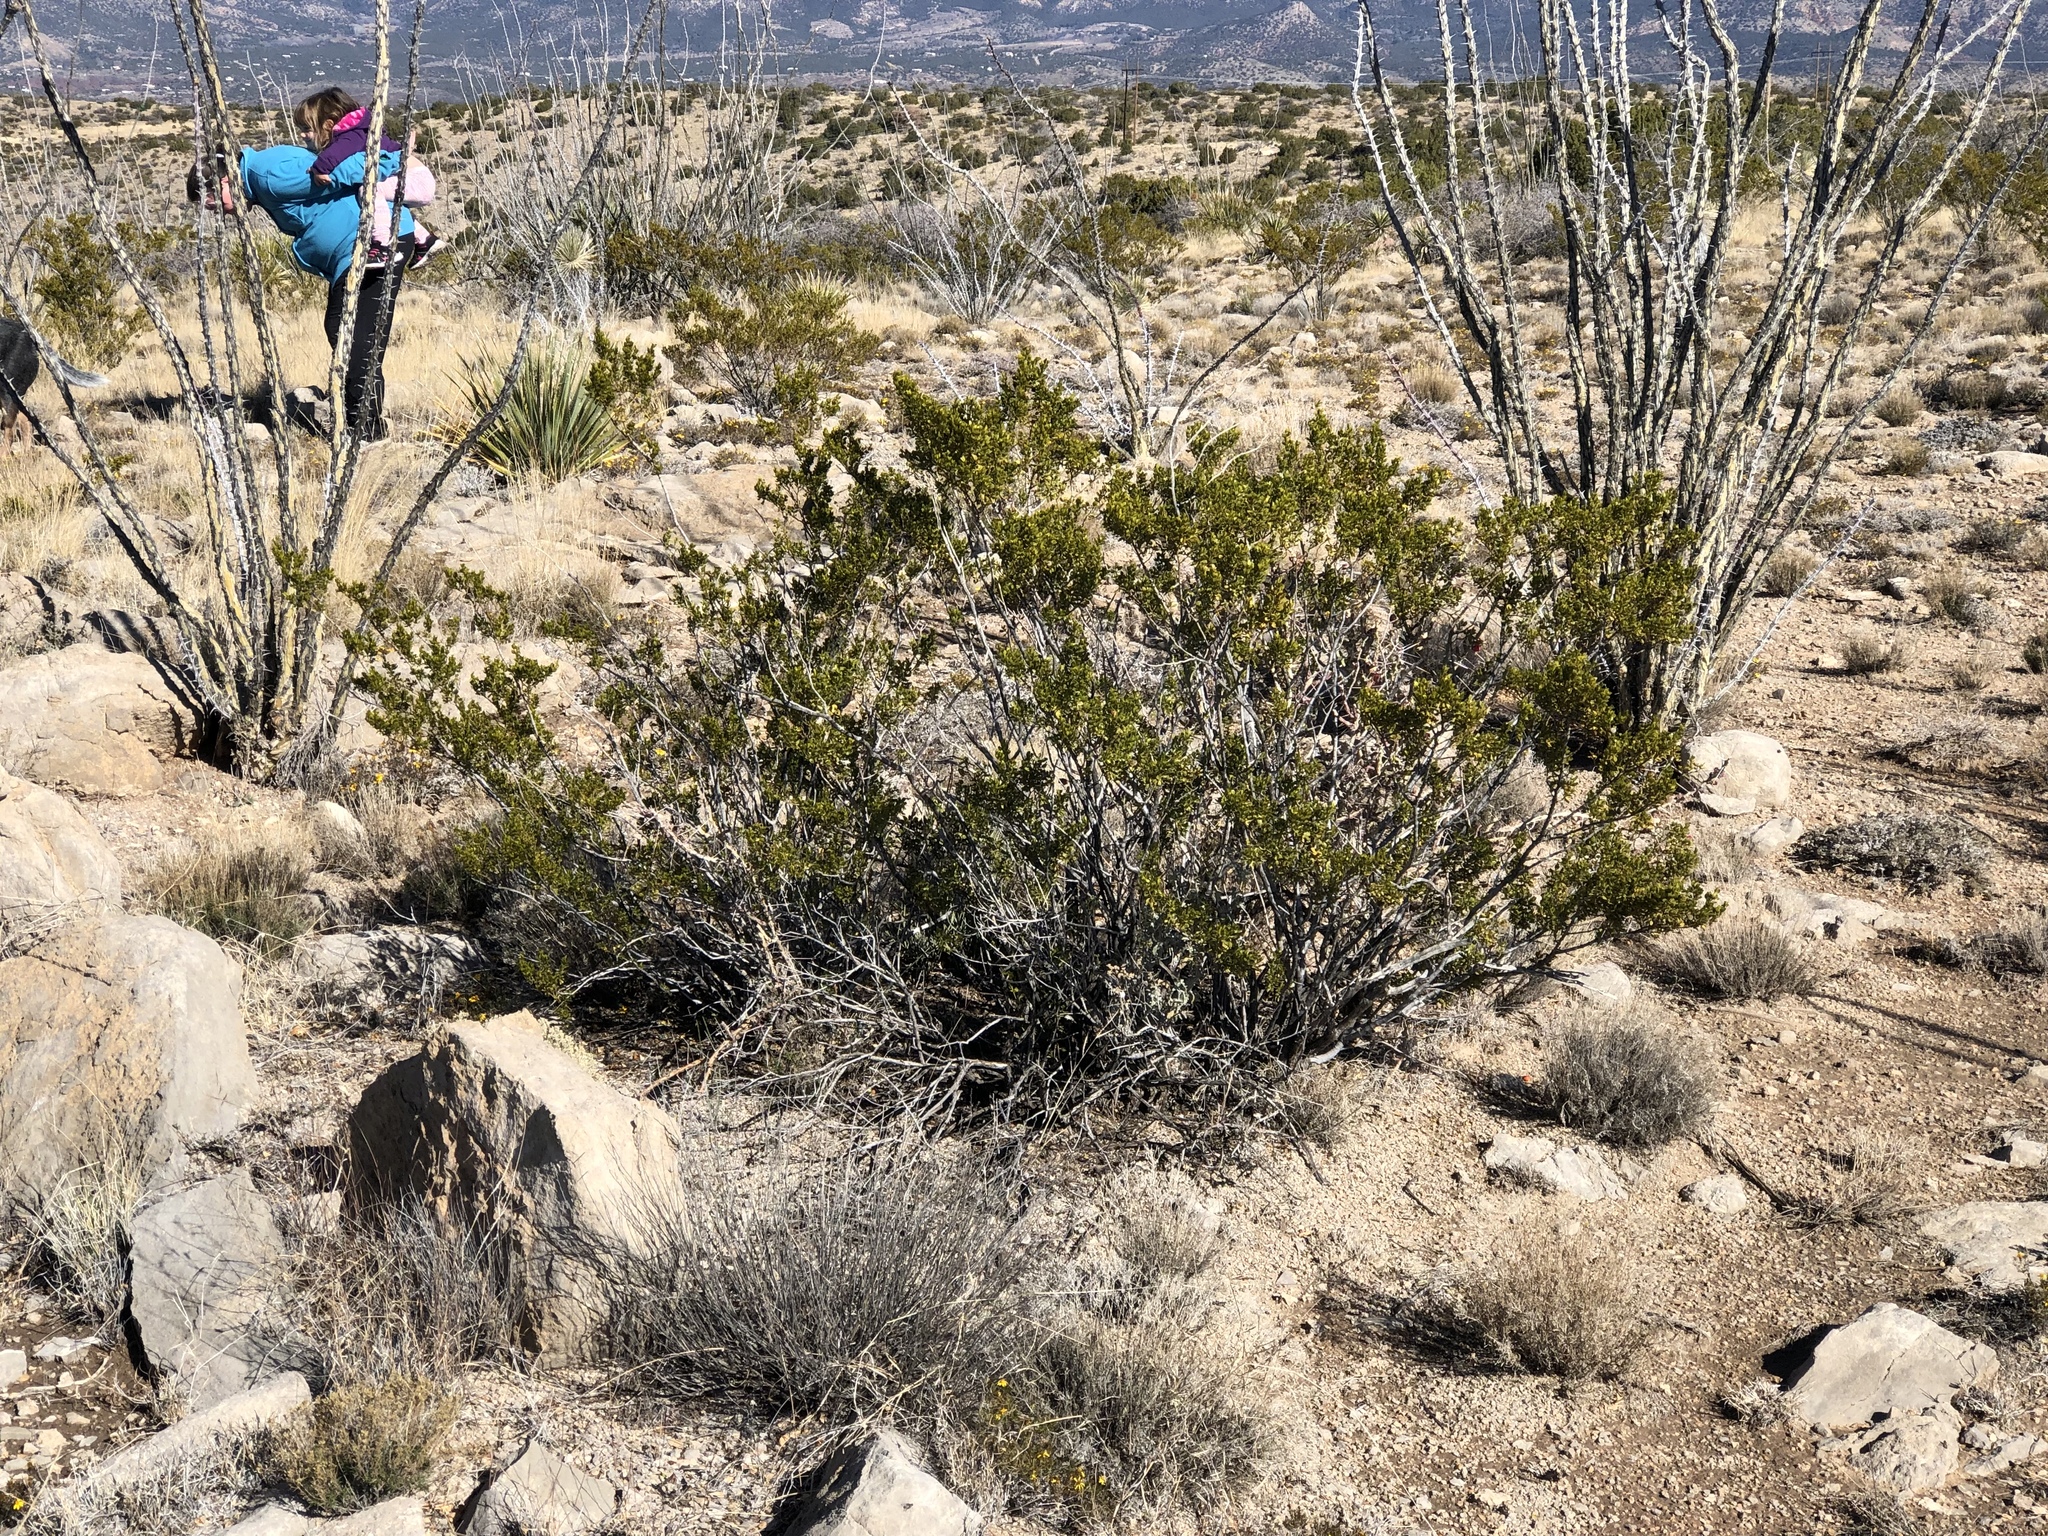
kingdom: Plantae
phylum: Tracheophyta
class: Magnoliopsida
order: Zygophyllales
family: Zygophyllaceae
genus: Larrea
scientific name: Larrea tridentata
